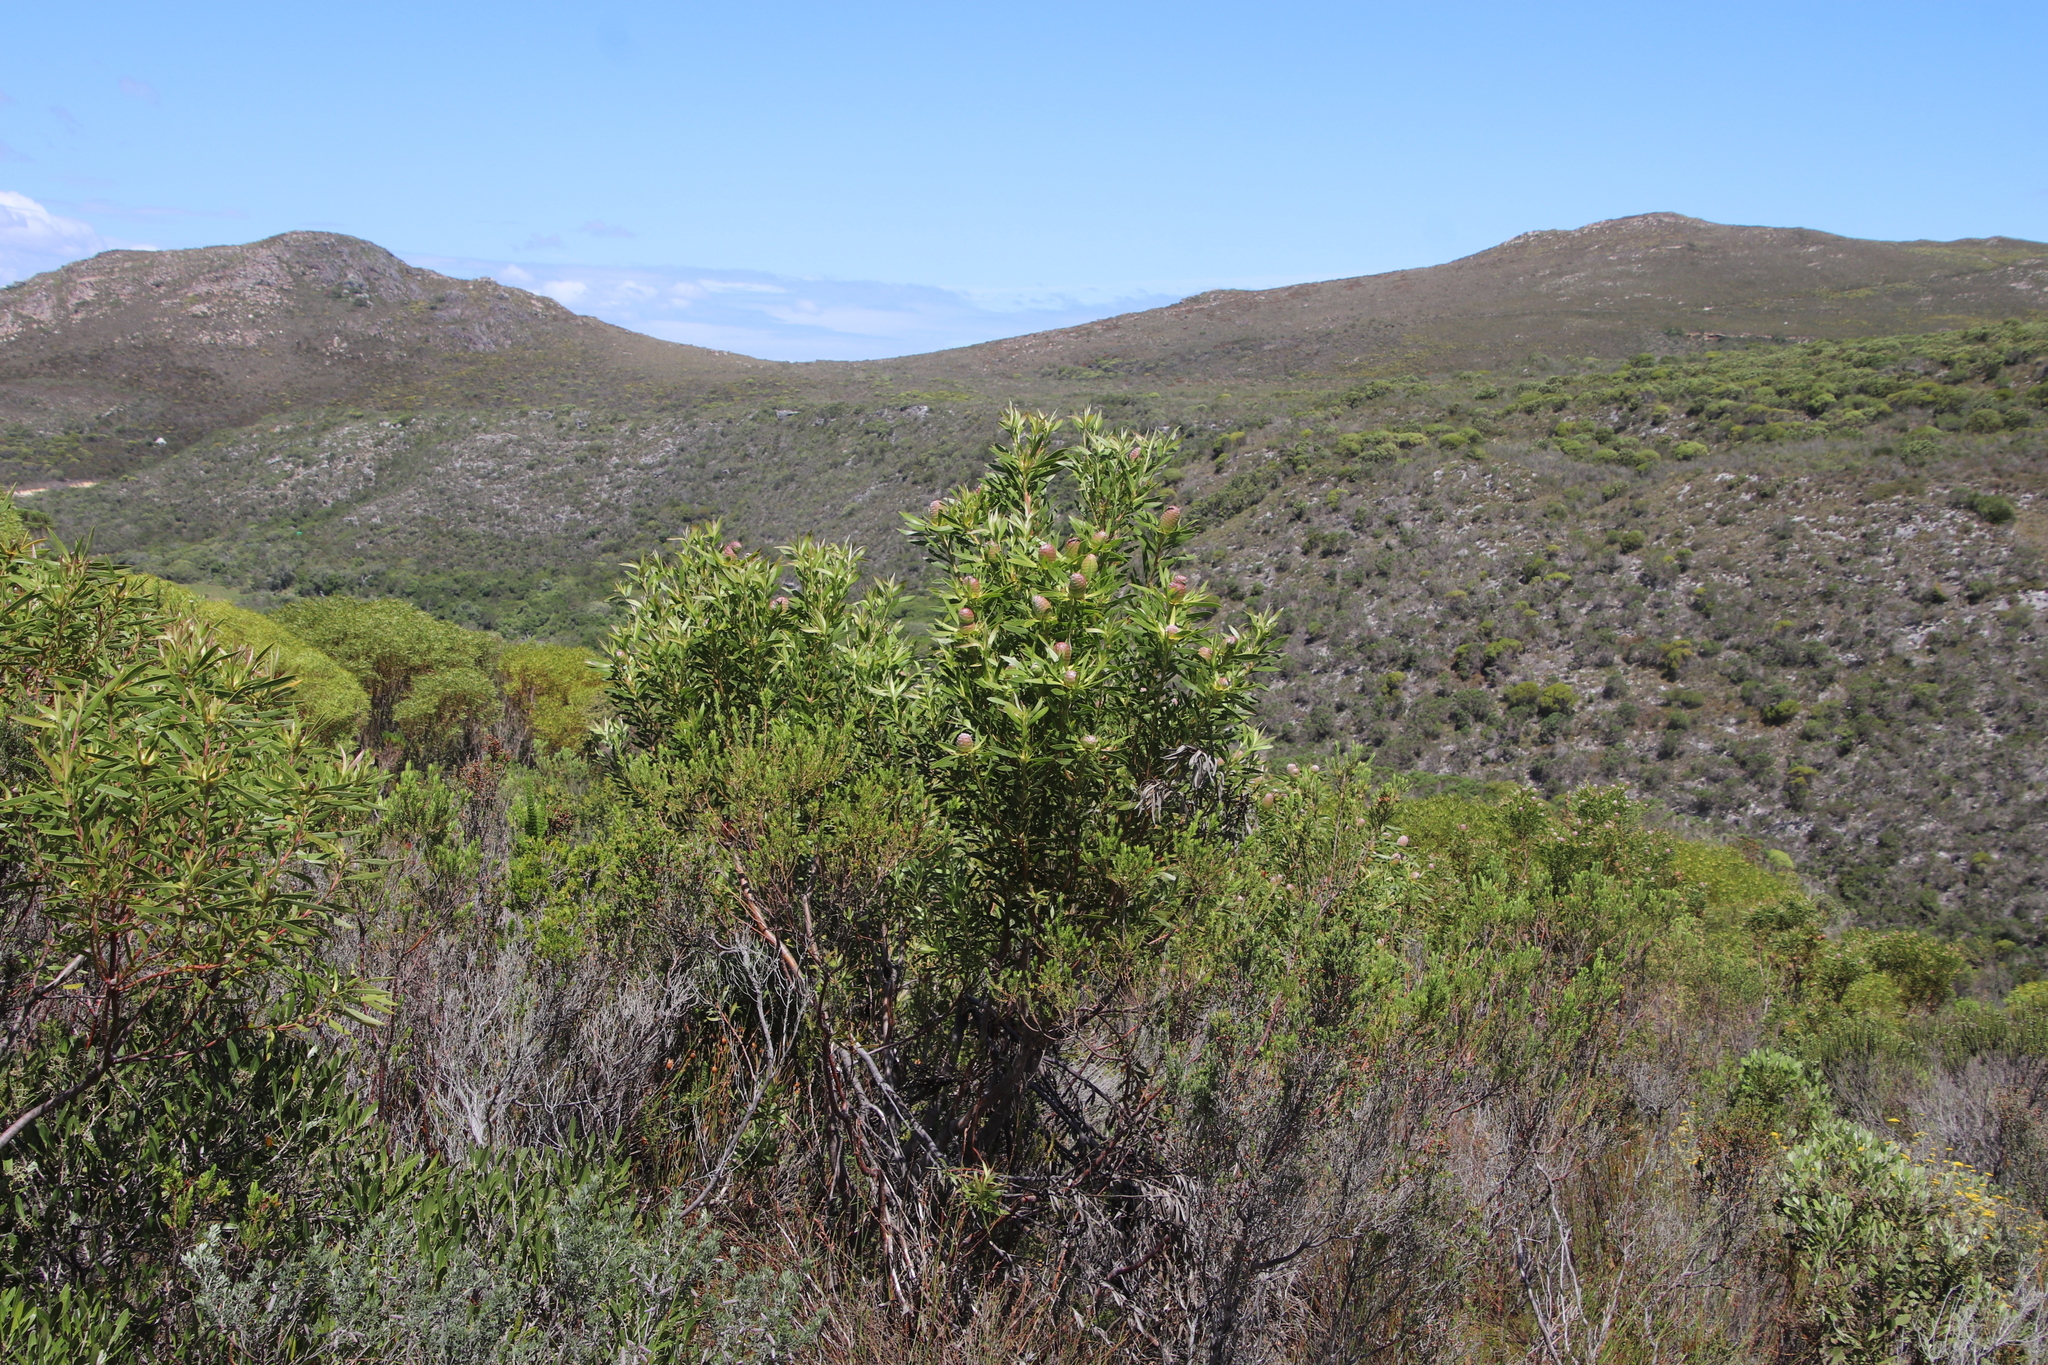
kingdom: Plantae
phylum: Tracheophyta
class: Magnoliopsida
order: Proteales
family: Proteaceae
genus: Leucadendron
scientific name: Leucadendron coniferum
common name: Dune conebush
